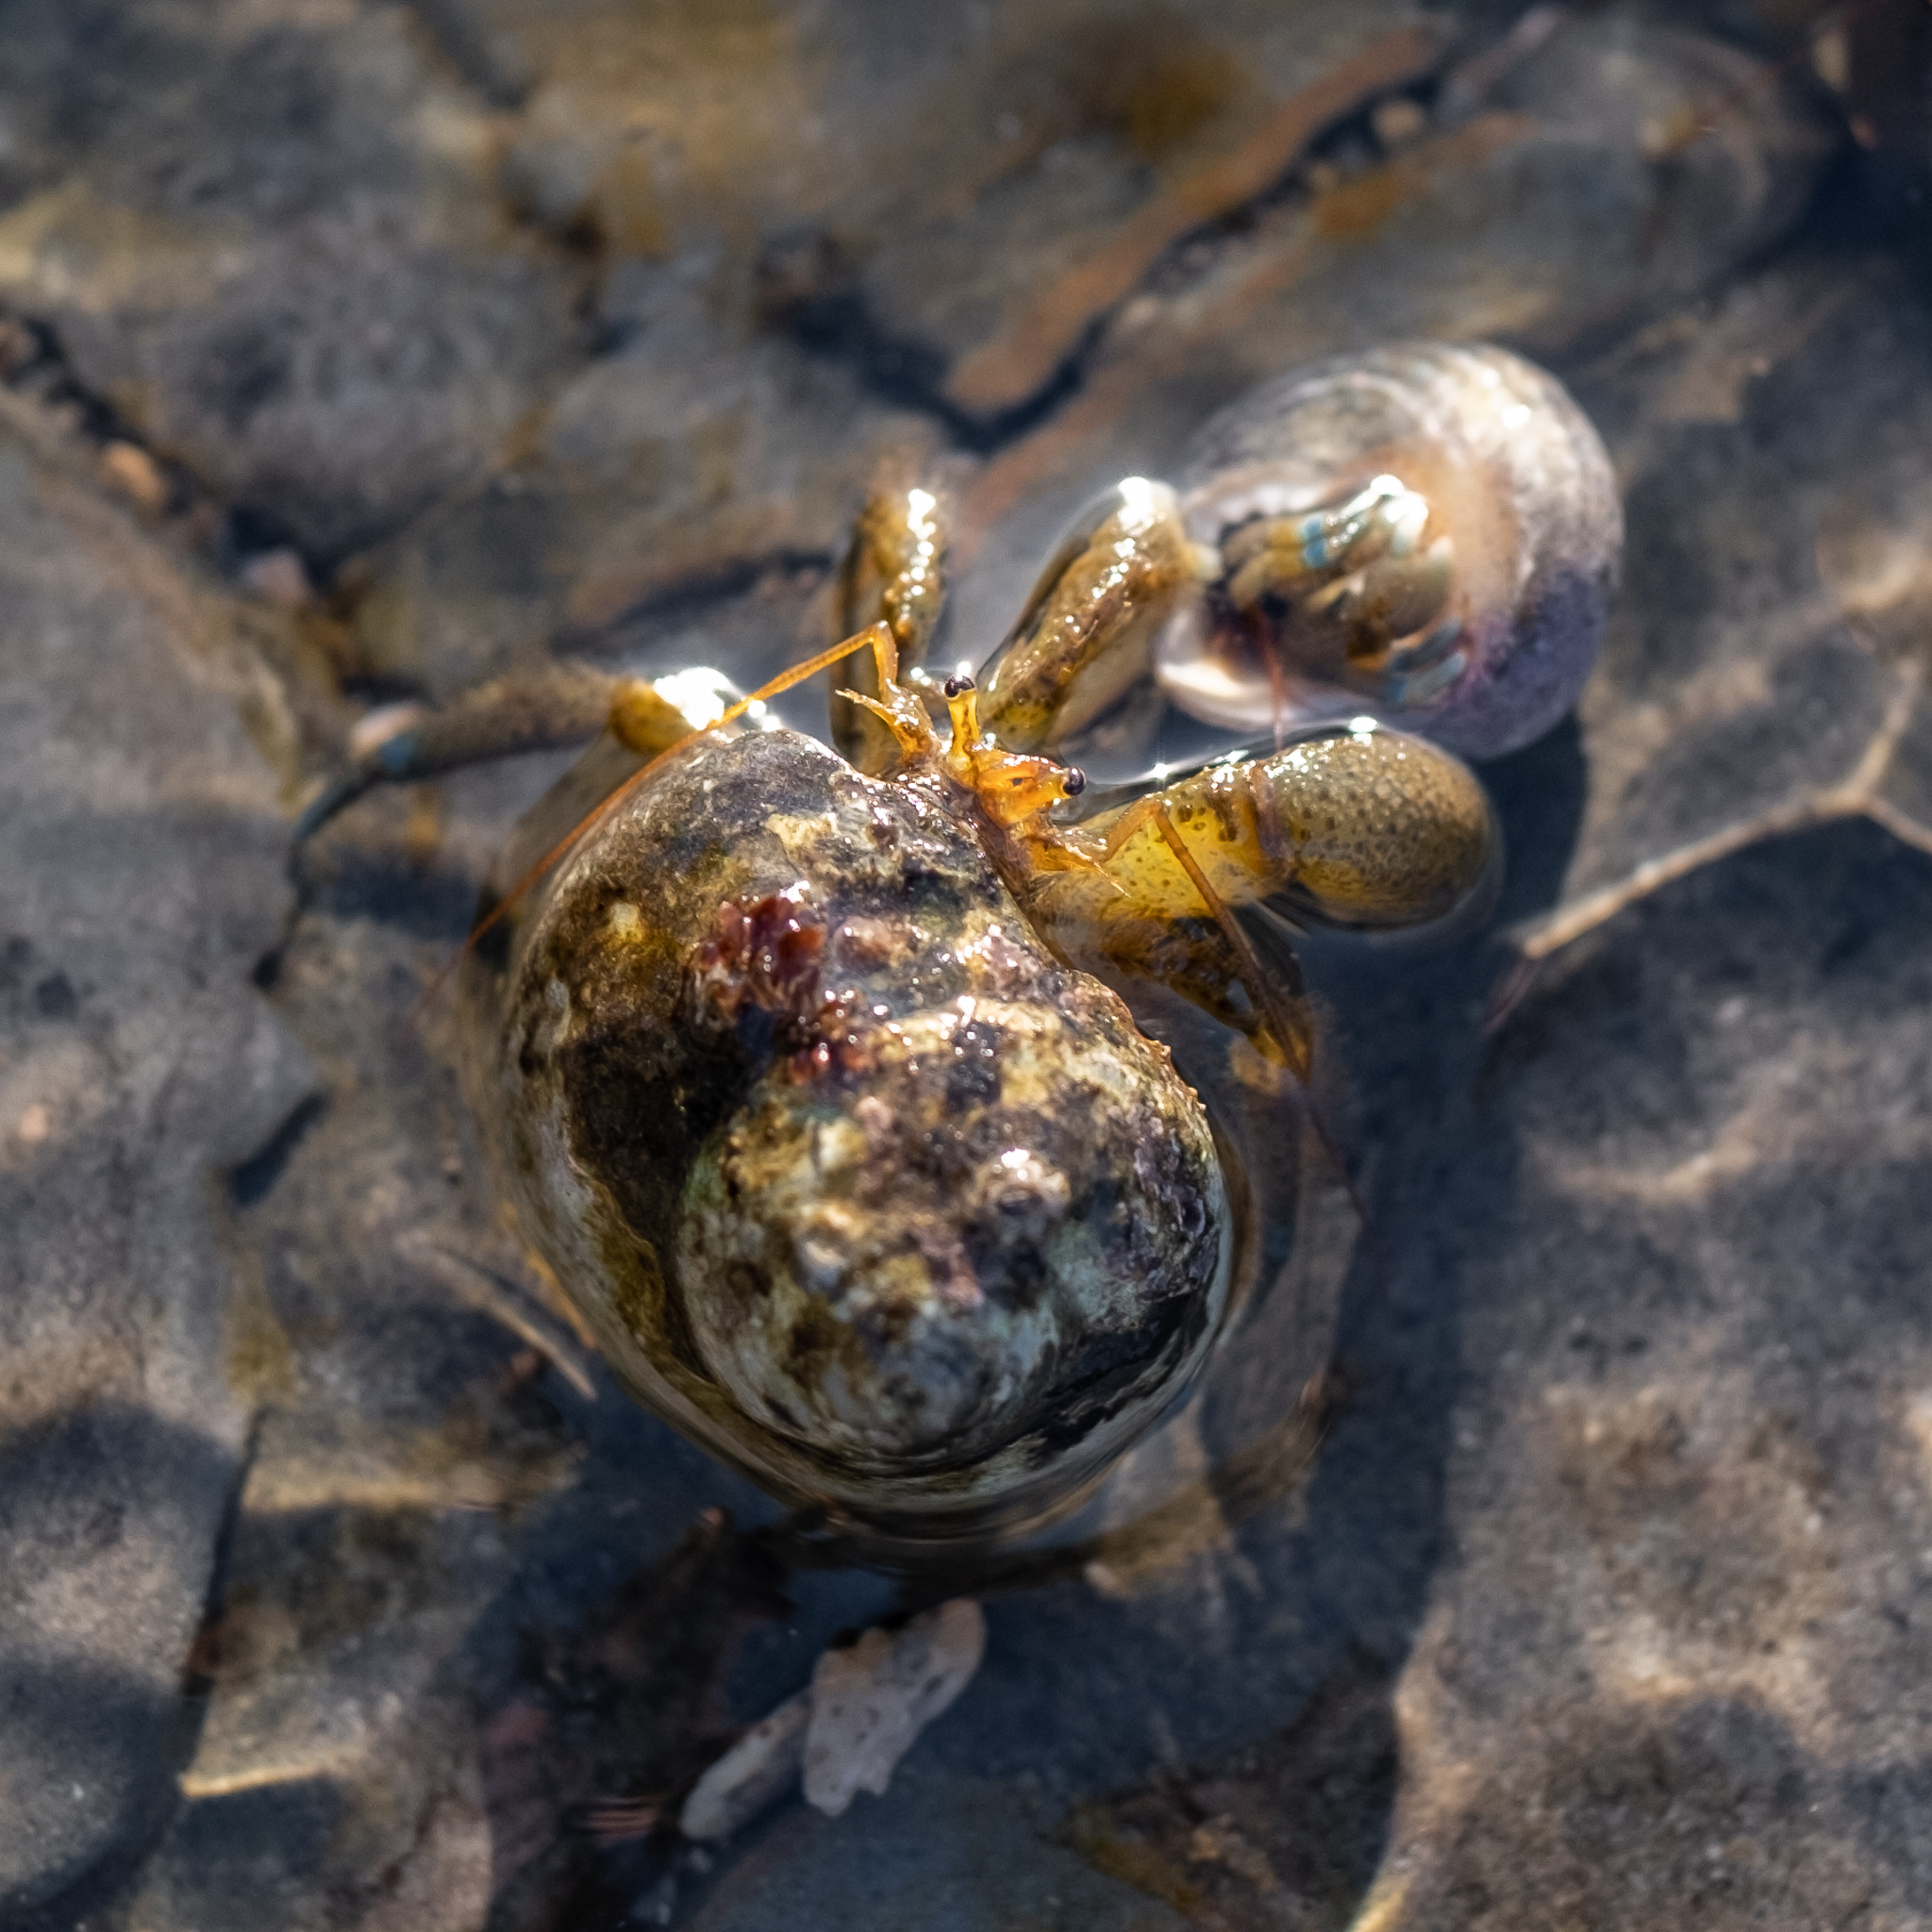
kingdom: Animalia
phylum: Arthropoda
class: Malacostraca
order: Decapoda
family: Paguridae
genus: Pagurus
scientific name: Pagurus samuelis
